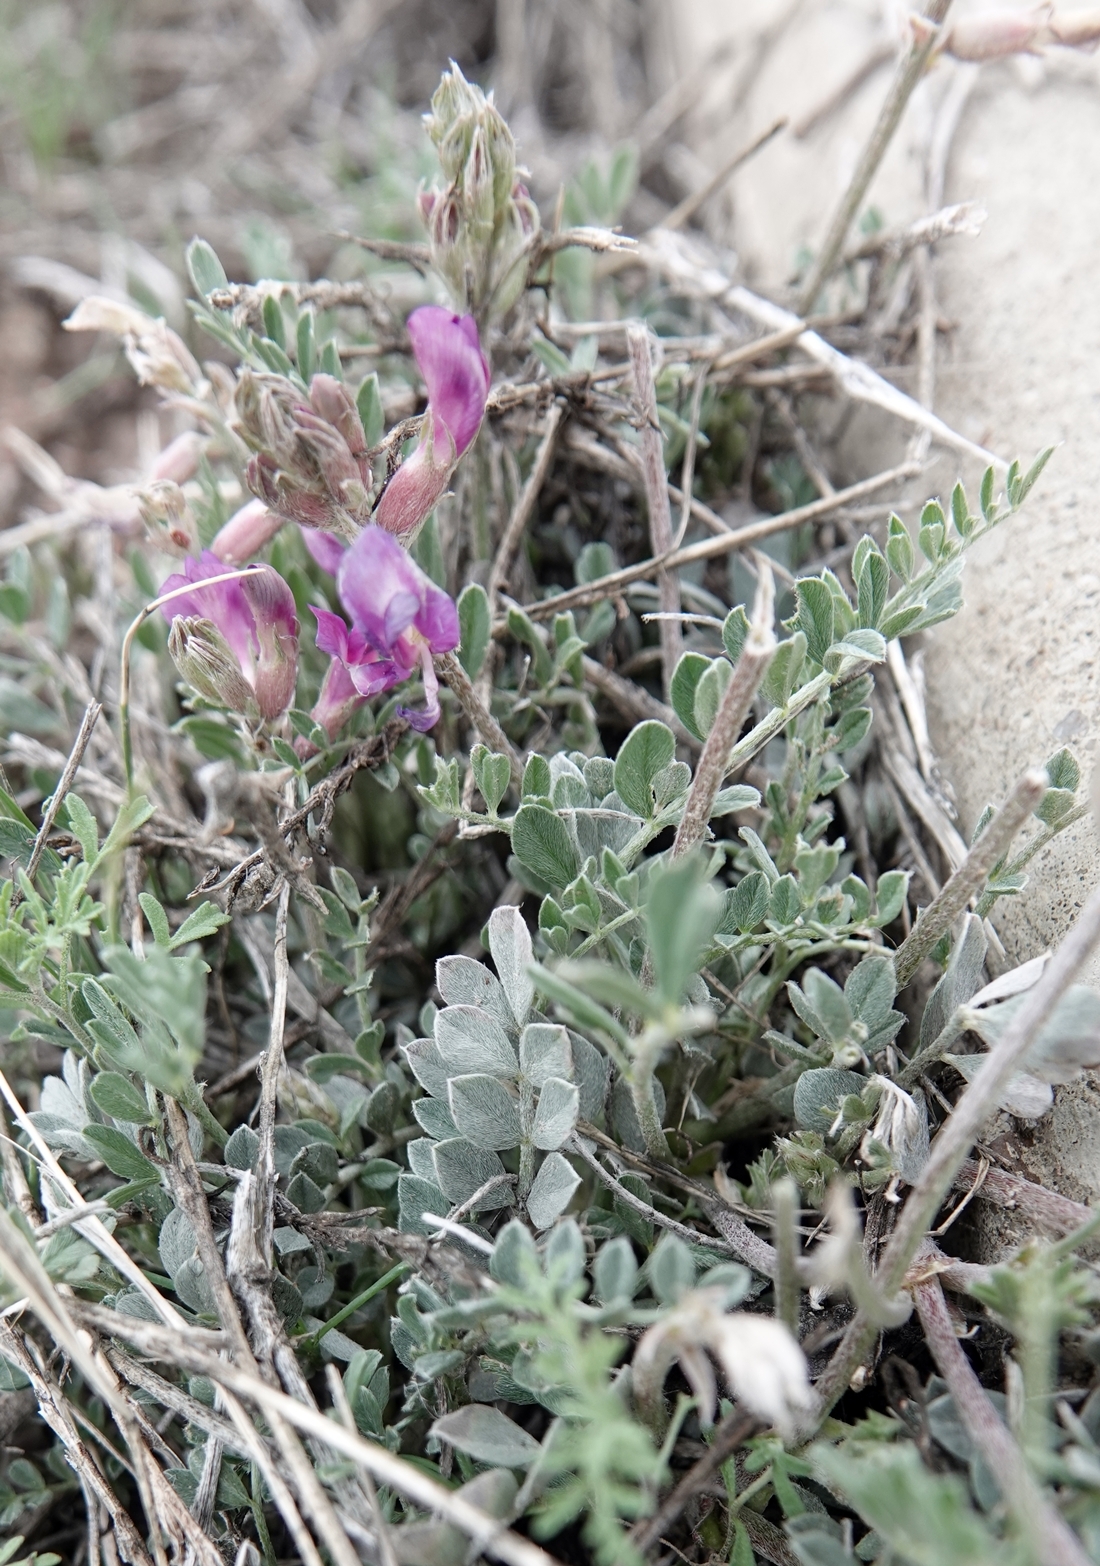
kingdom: Plantae
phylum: Tracheophyta
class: Magnoliopsida
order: Fabales
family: Fabaceae
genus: Astragalus
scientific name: Astragalus missouriensis
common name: Missouri milk-vetch
